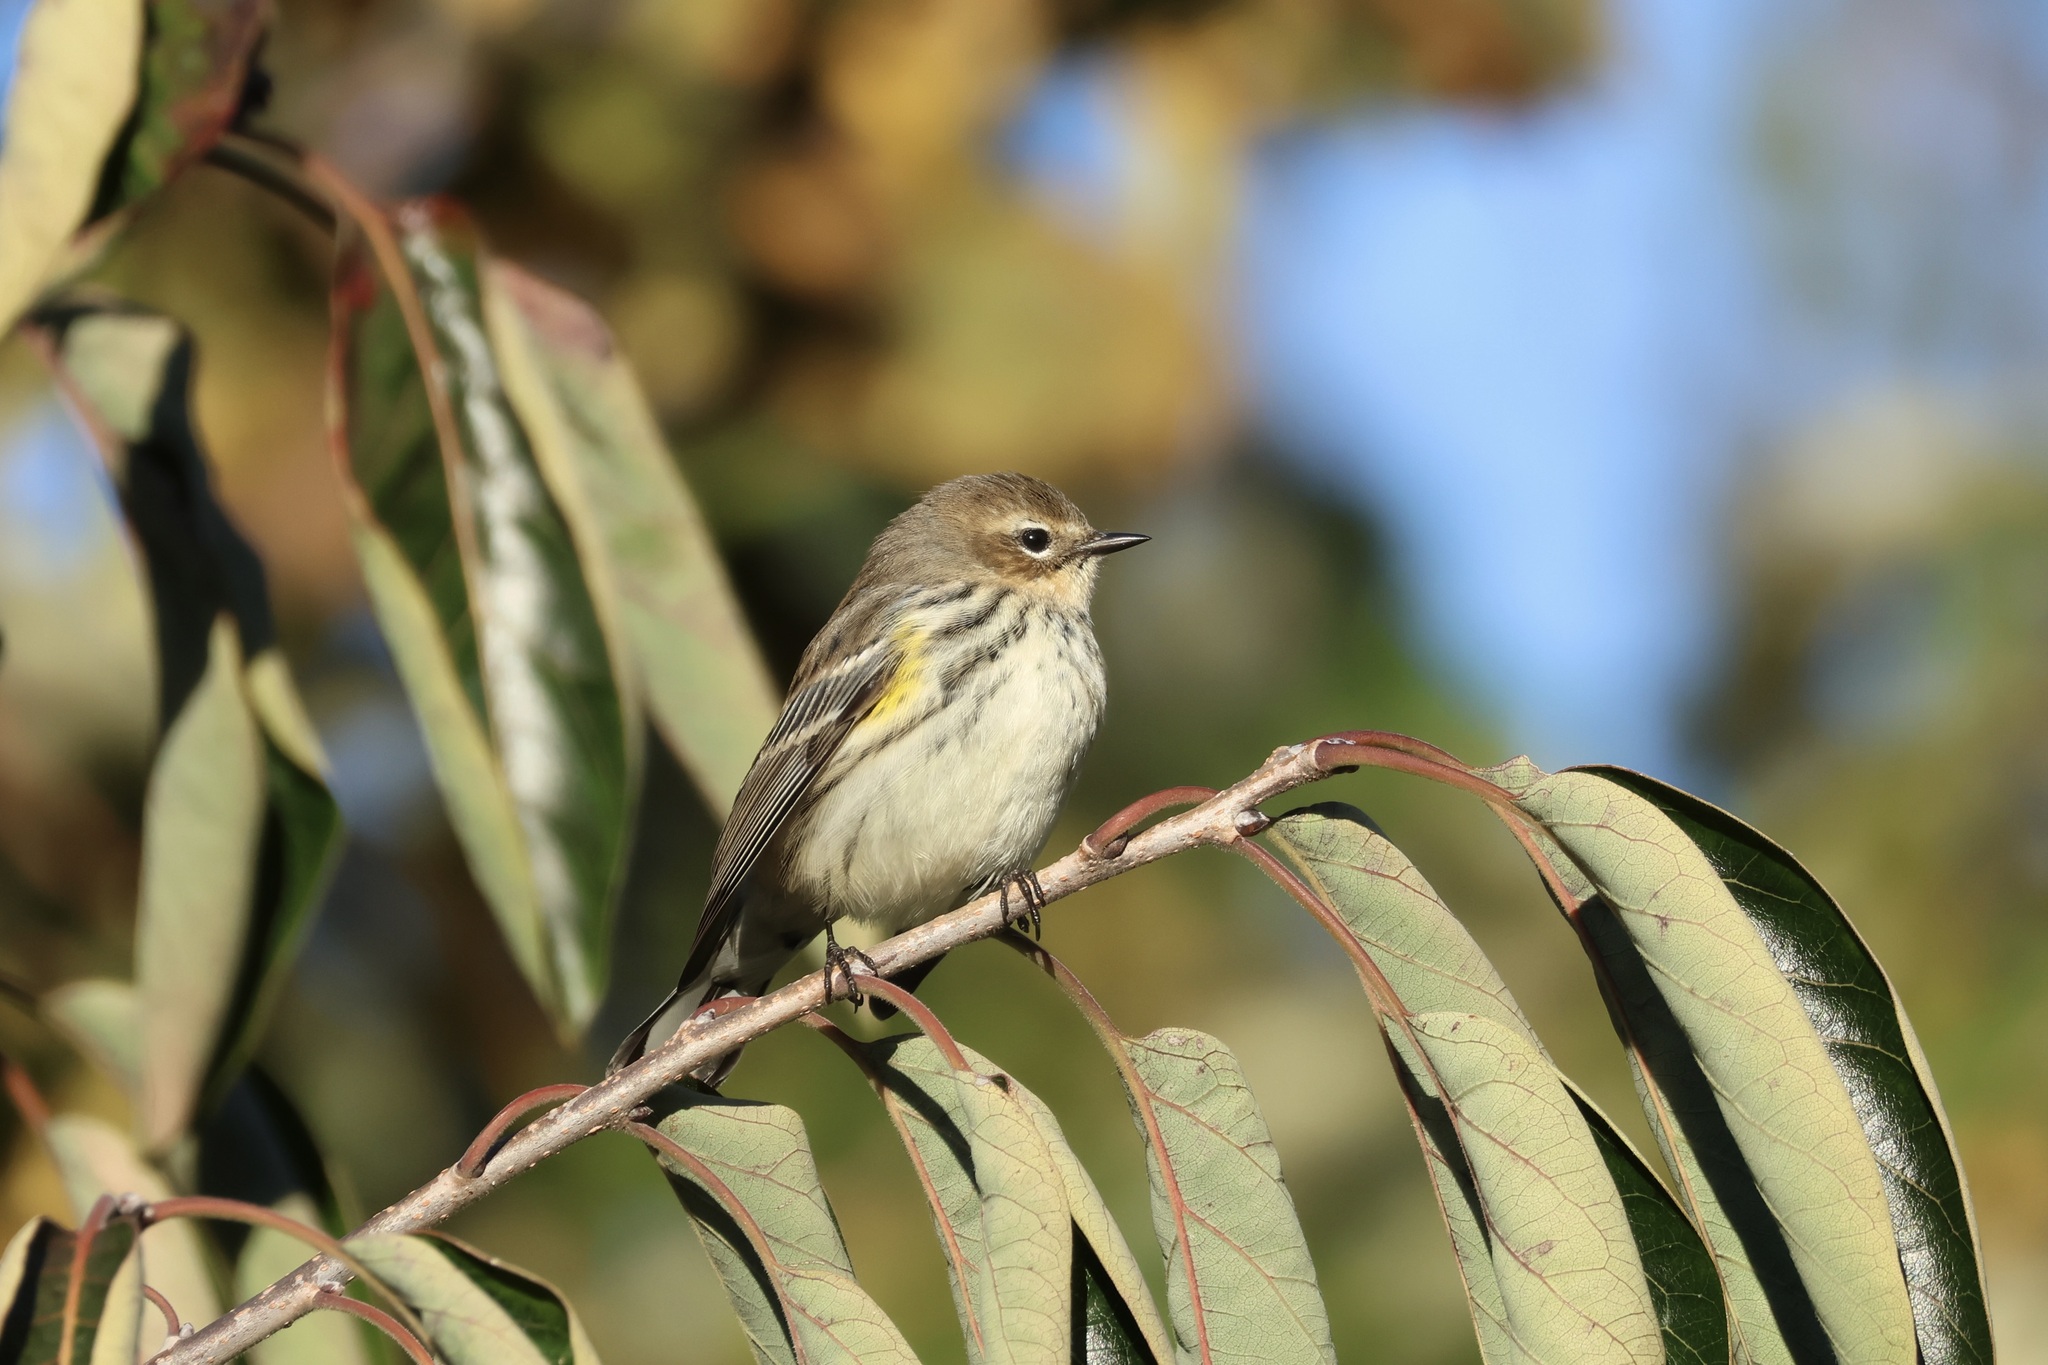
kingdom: Animalia
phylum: Chordata
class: Aves
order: Passeriformes
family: Parulidae
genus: Setophaga
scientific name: Setophaga coronata
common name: Myrtle warbler
